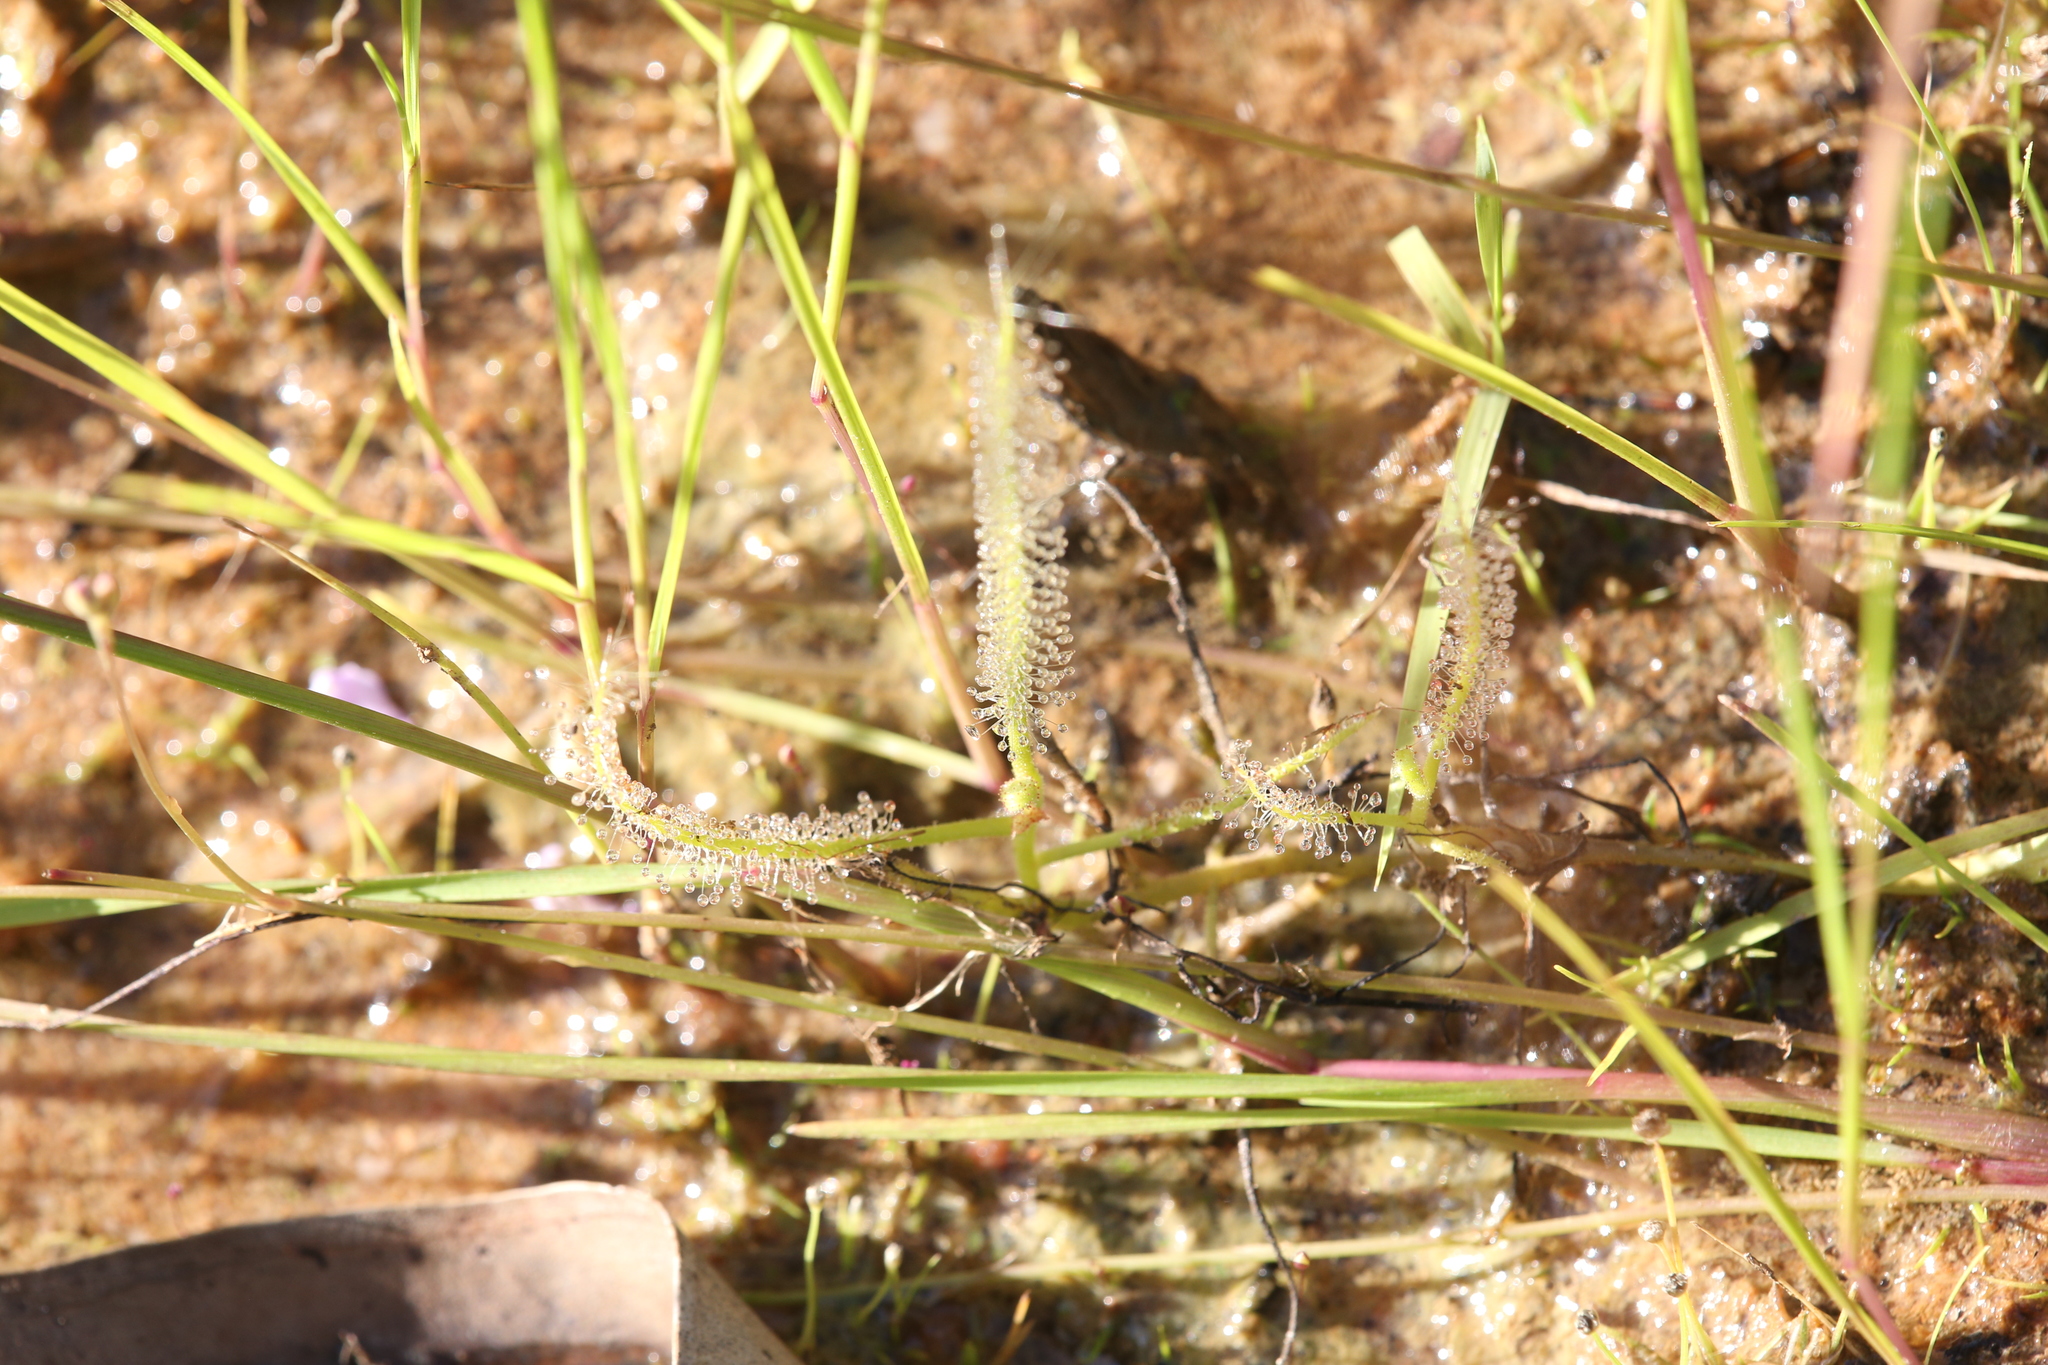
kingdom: Plantae
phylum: Tracheophyta
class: Magnoliopsida
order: Caryophyllales
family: Droseraceae
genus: Drosera
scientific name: Drosera indica
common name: Indian sundew
